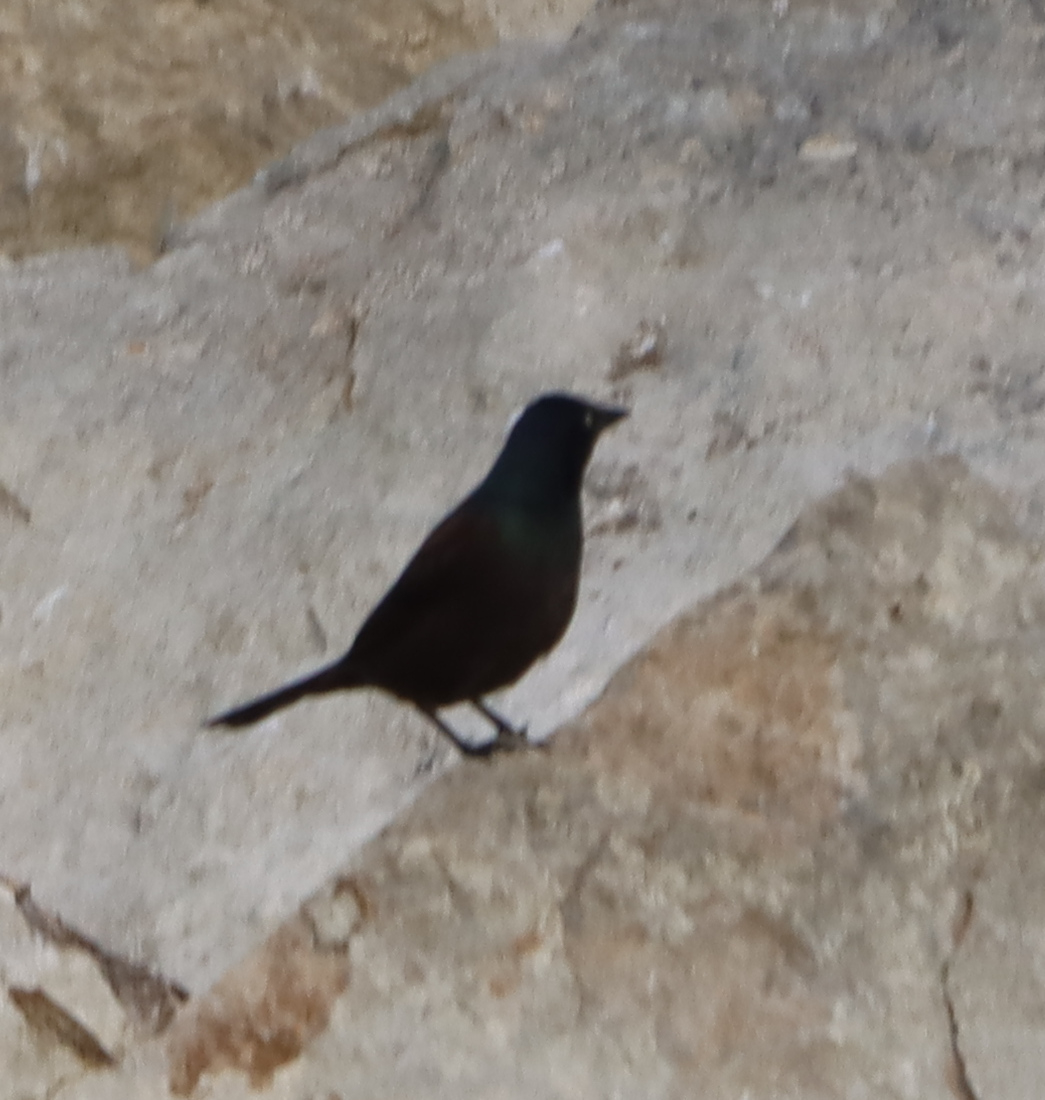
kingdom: Animalia
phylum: Chordata
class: Aves
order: Passeriformes
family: Icteridae
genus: Quiscalus
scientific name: Quiscalus quiscula
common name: Common grackle
